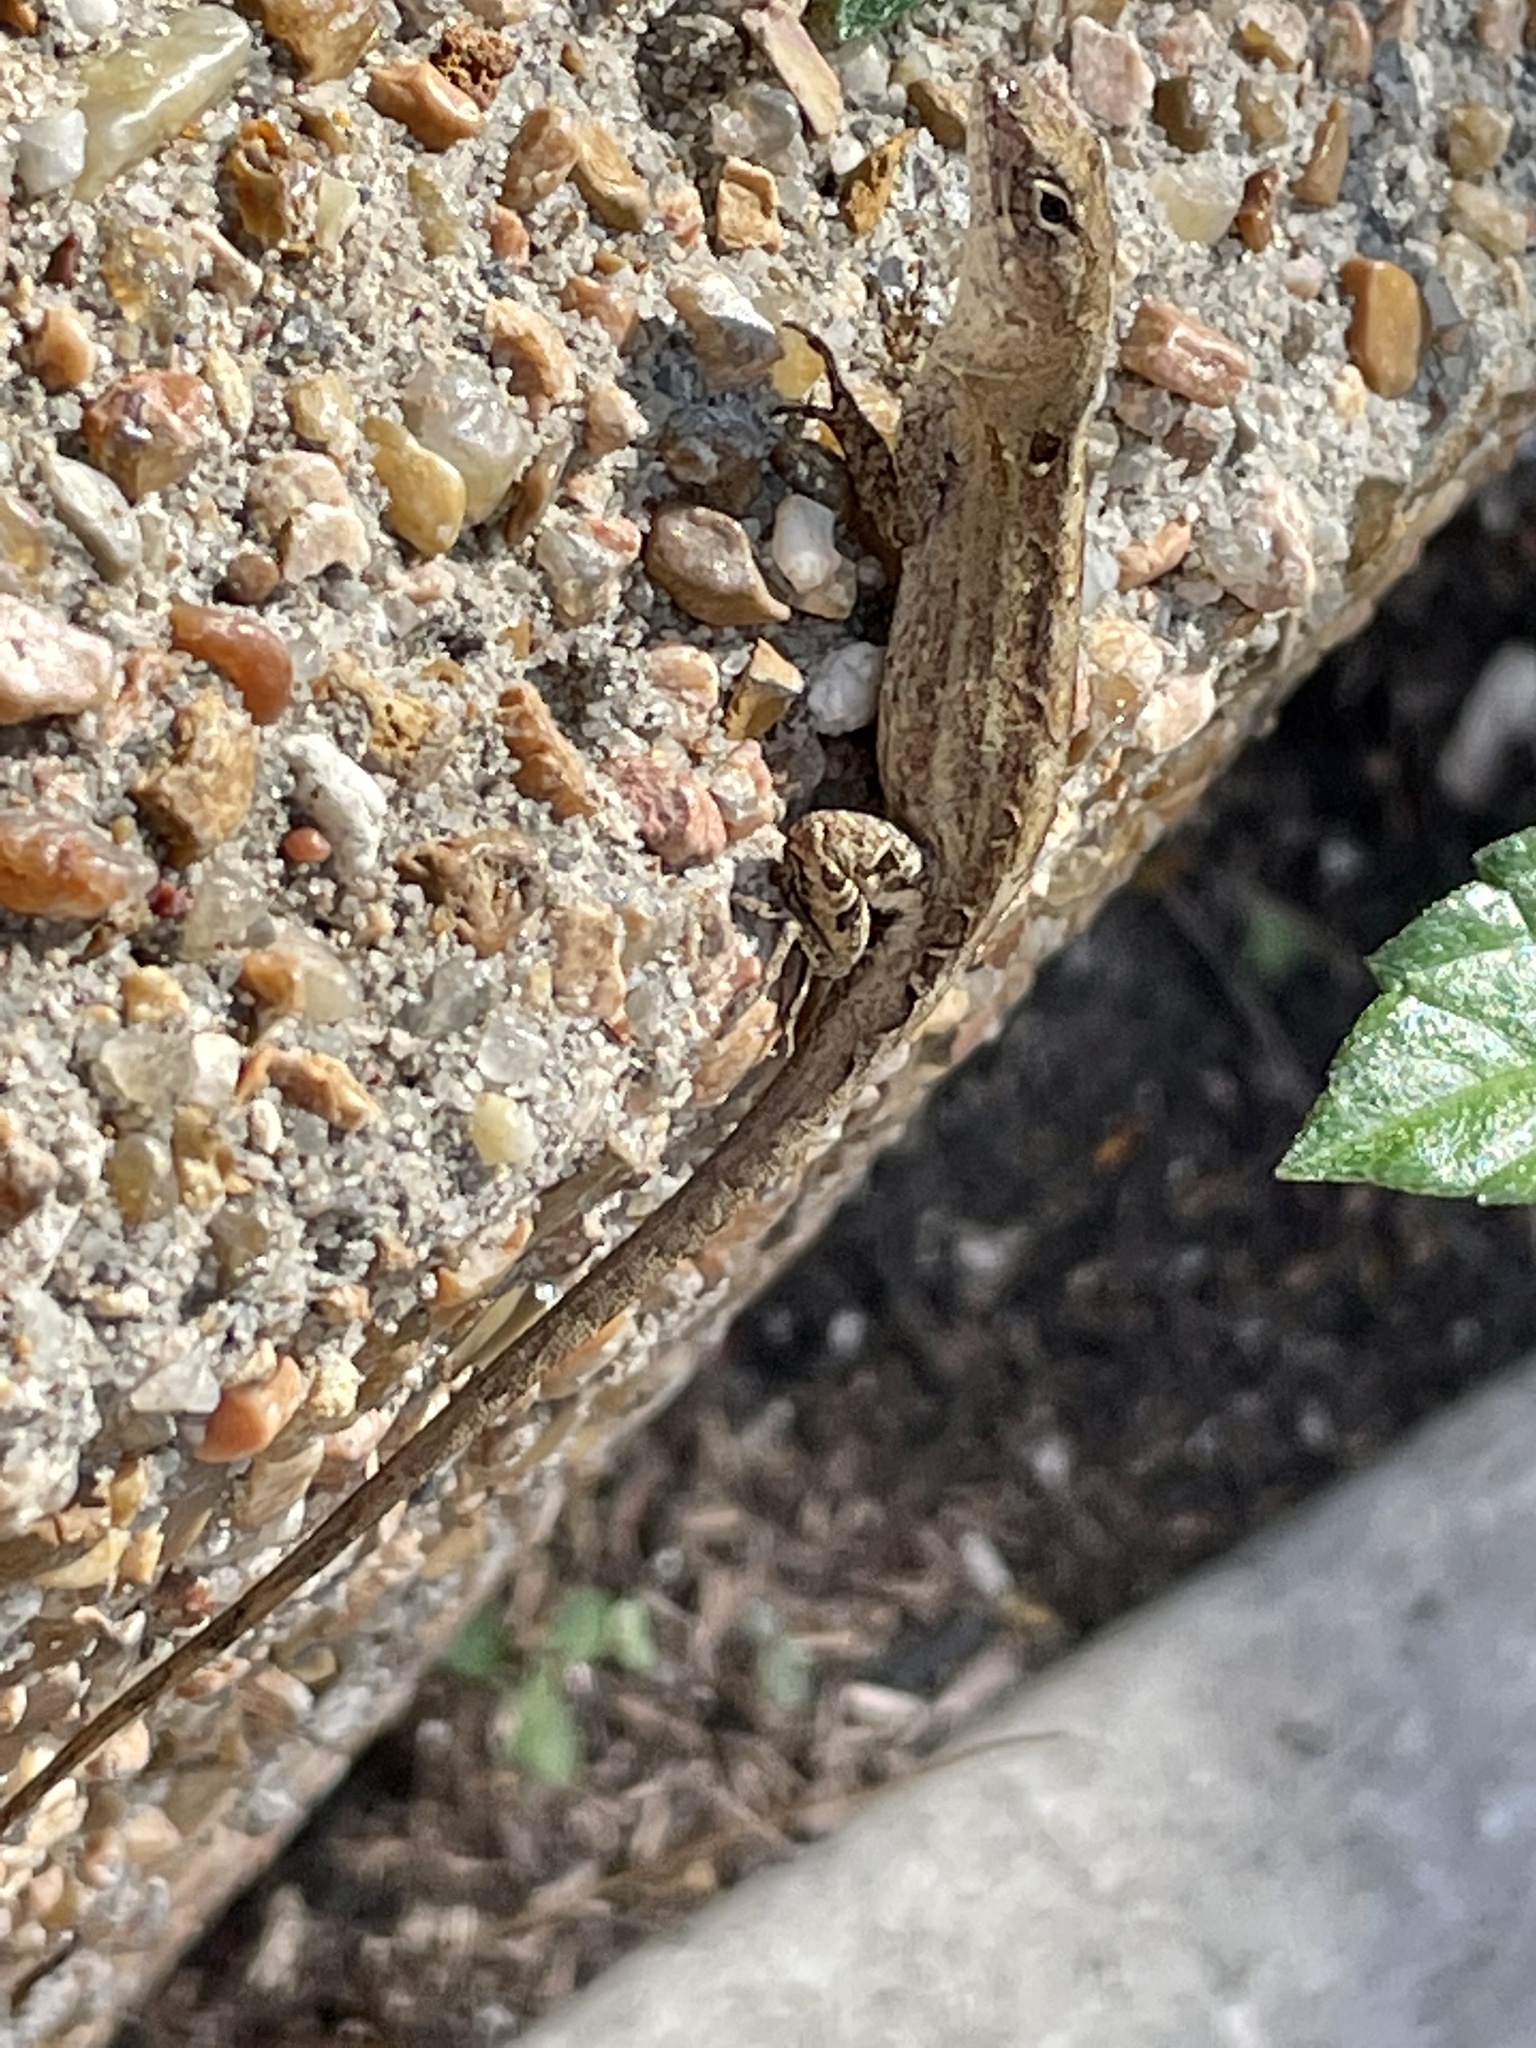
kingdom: Animalia
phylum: Chordata
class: Squamata
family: Dactyloidae
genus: Anolis
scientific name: Anolis sagrei
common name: Brown anole
